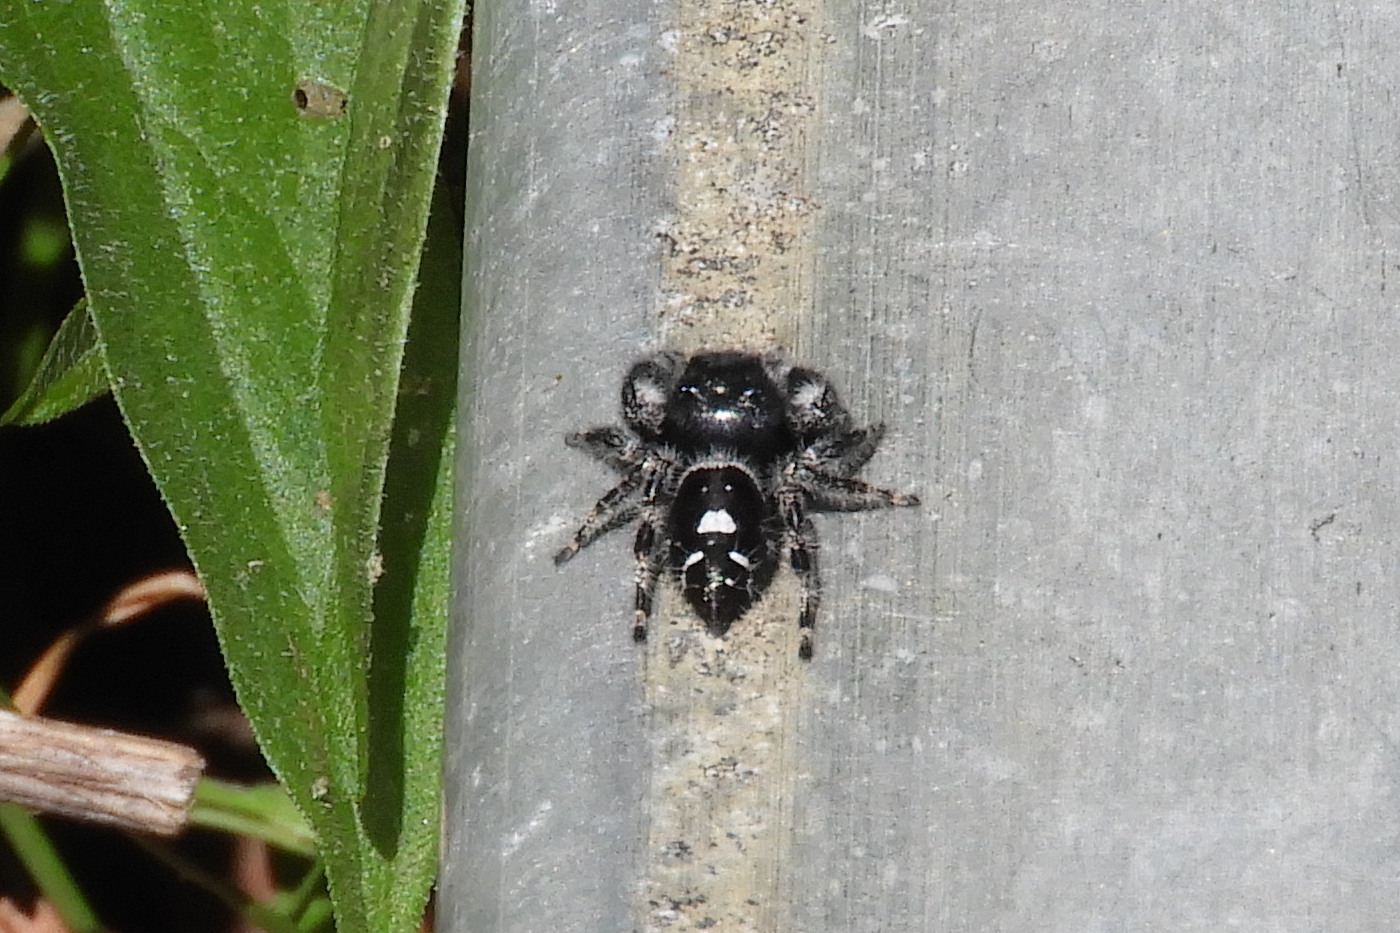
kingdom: Animalia
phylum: Arthropoda
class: Arachnida
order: Araneae
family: Salticidae
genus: Phidippus
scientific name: Phidippus audax
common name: Bold jumper
